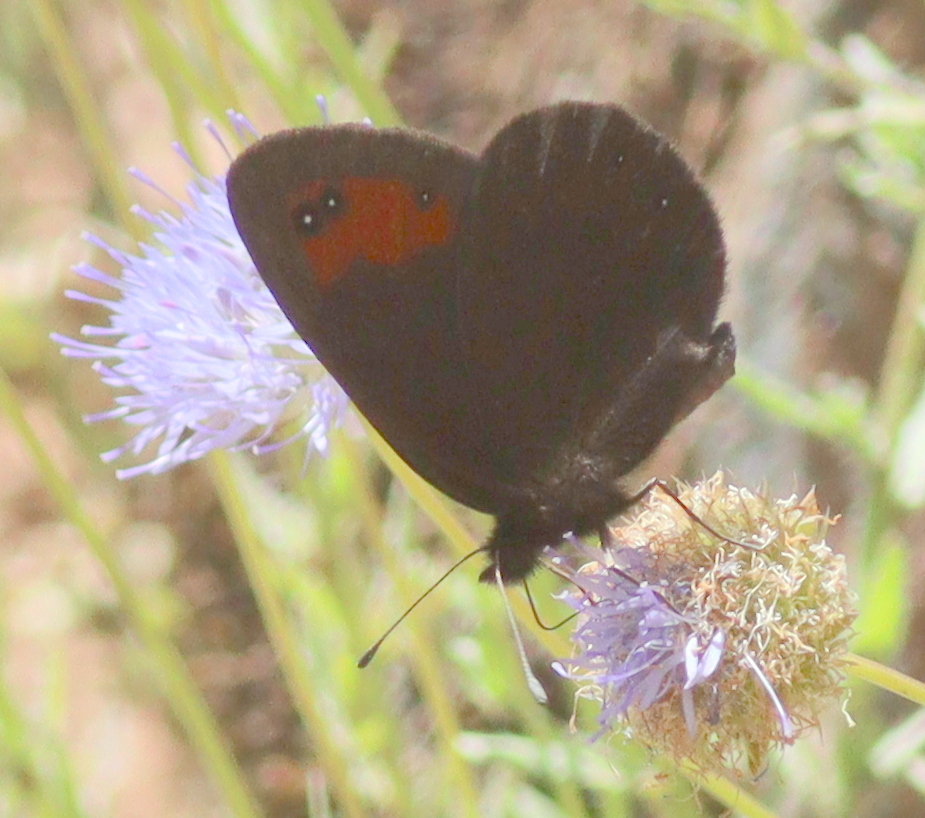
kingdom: Animalia
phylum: Arthropoda
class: Insecta
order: Lepidoptera
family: Nymphalidae
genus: Erebia
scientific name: Erebia meolans
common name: Piedmont ringlet
